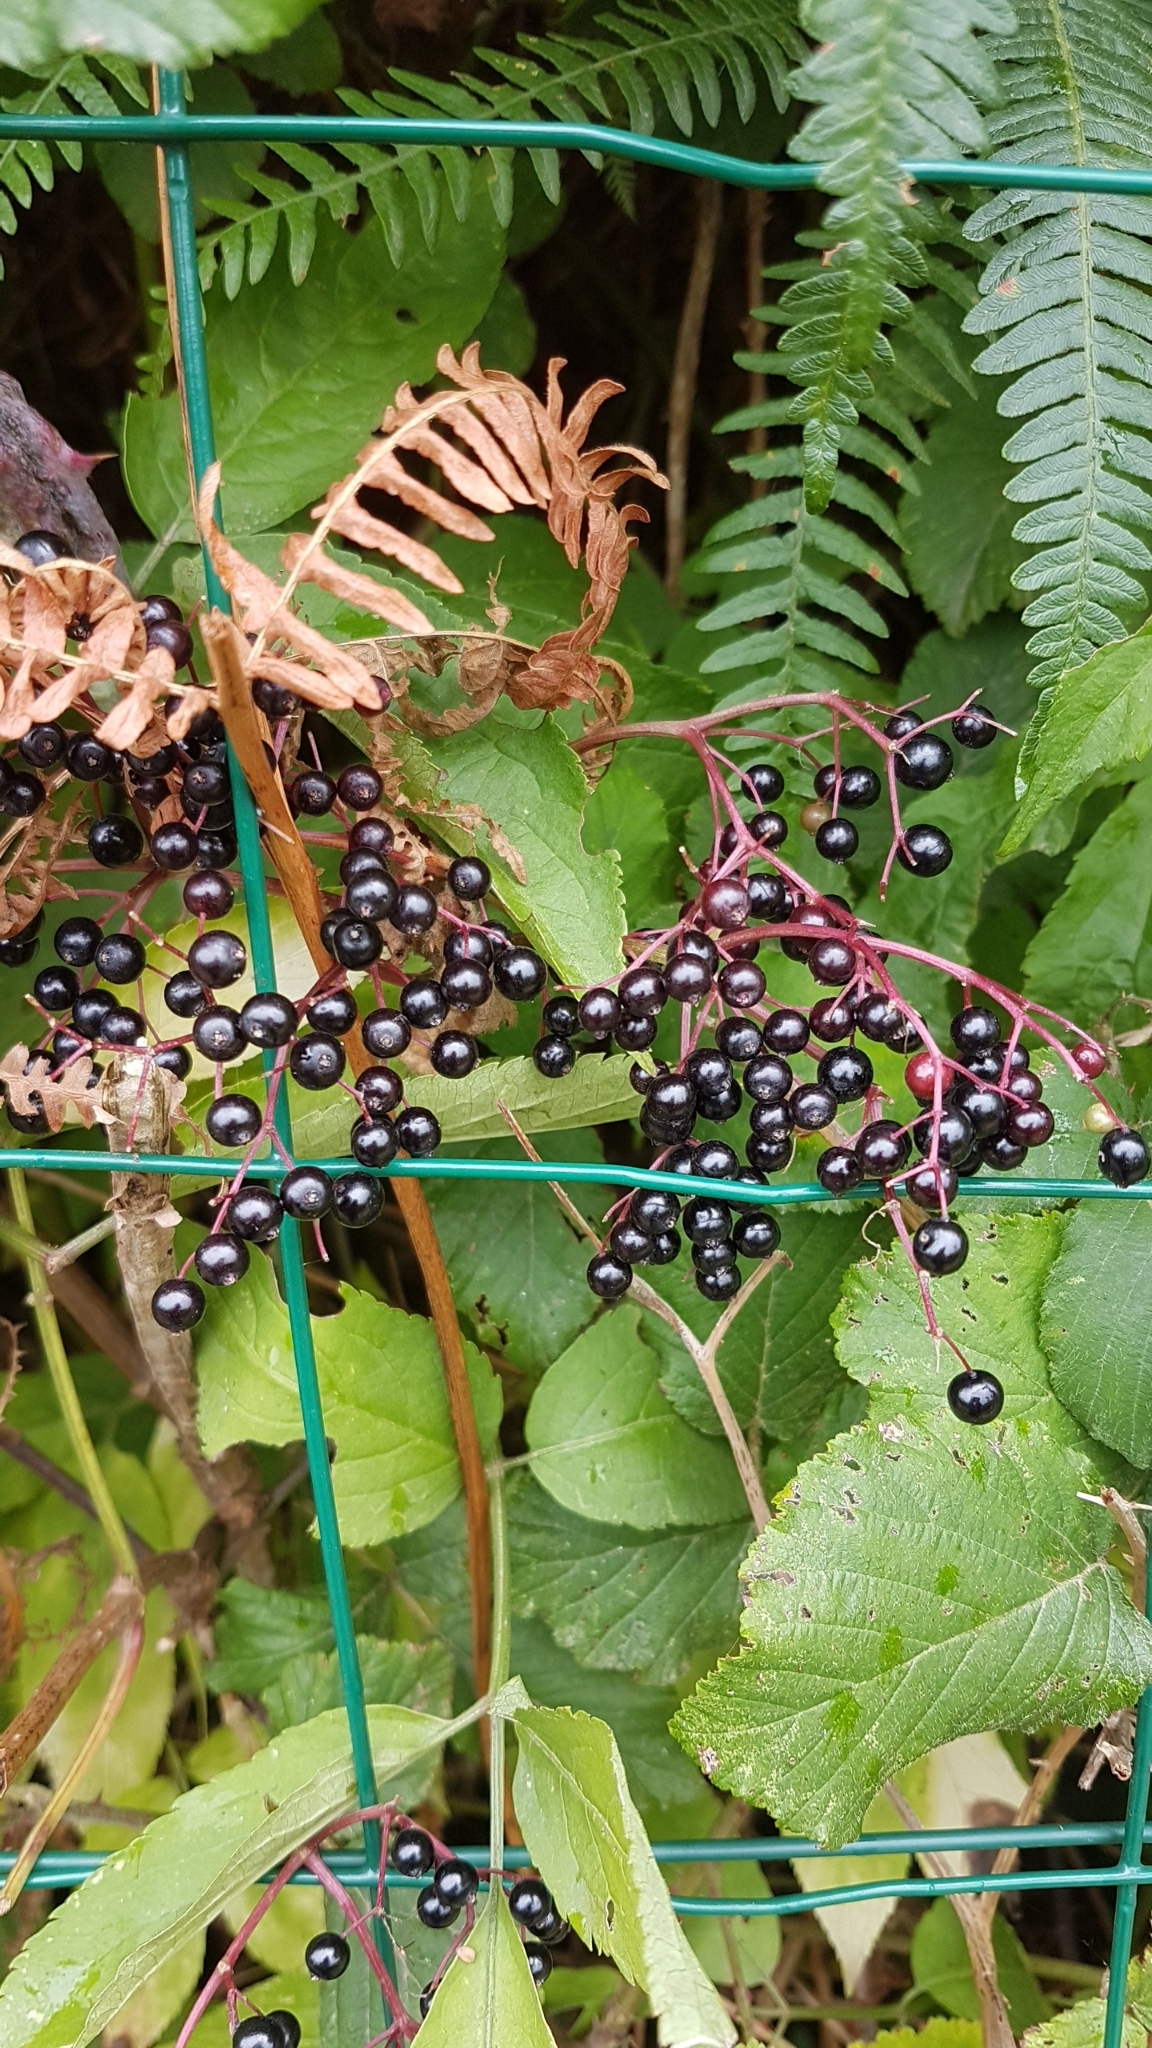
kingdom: Plantae
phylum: Tracheophyta
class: Magnoliopsida
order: Dipsacales
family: Viburnaceae
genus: Sambucus
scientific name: Sambucus nigra
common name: Elder
